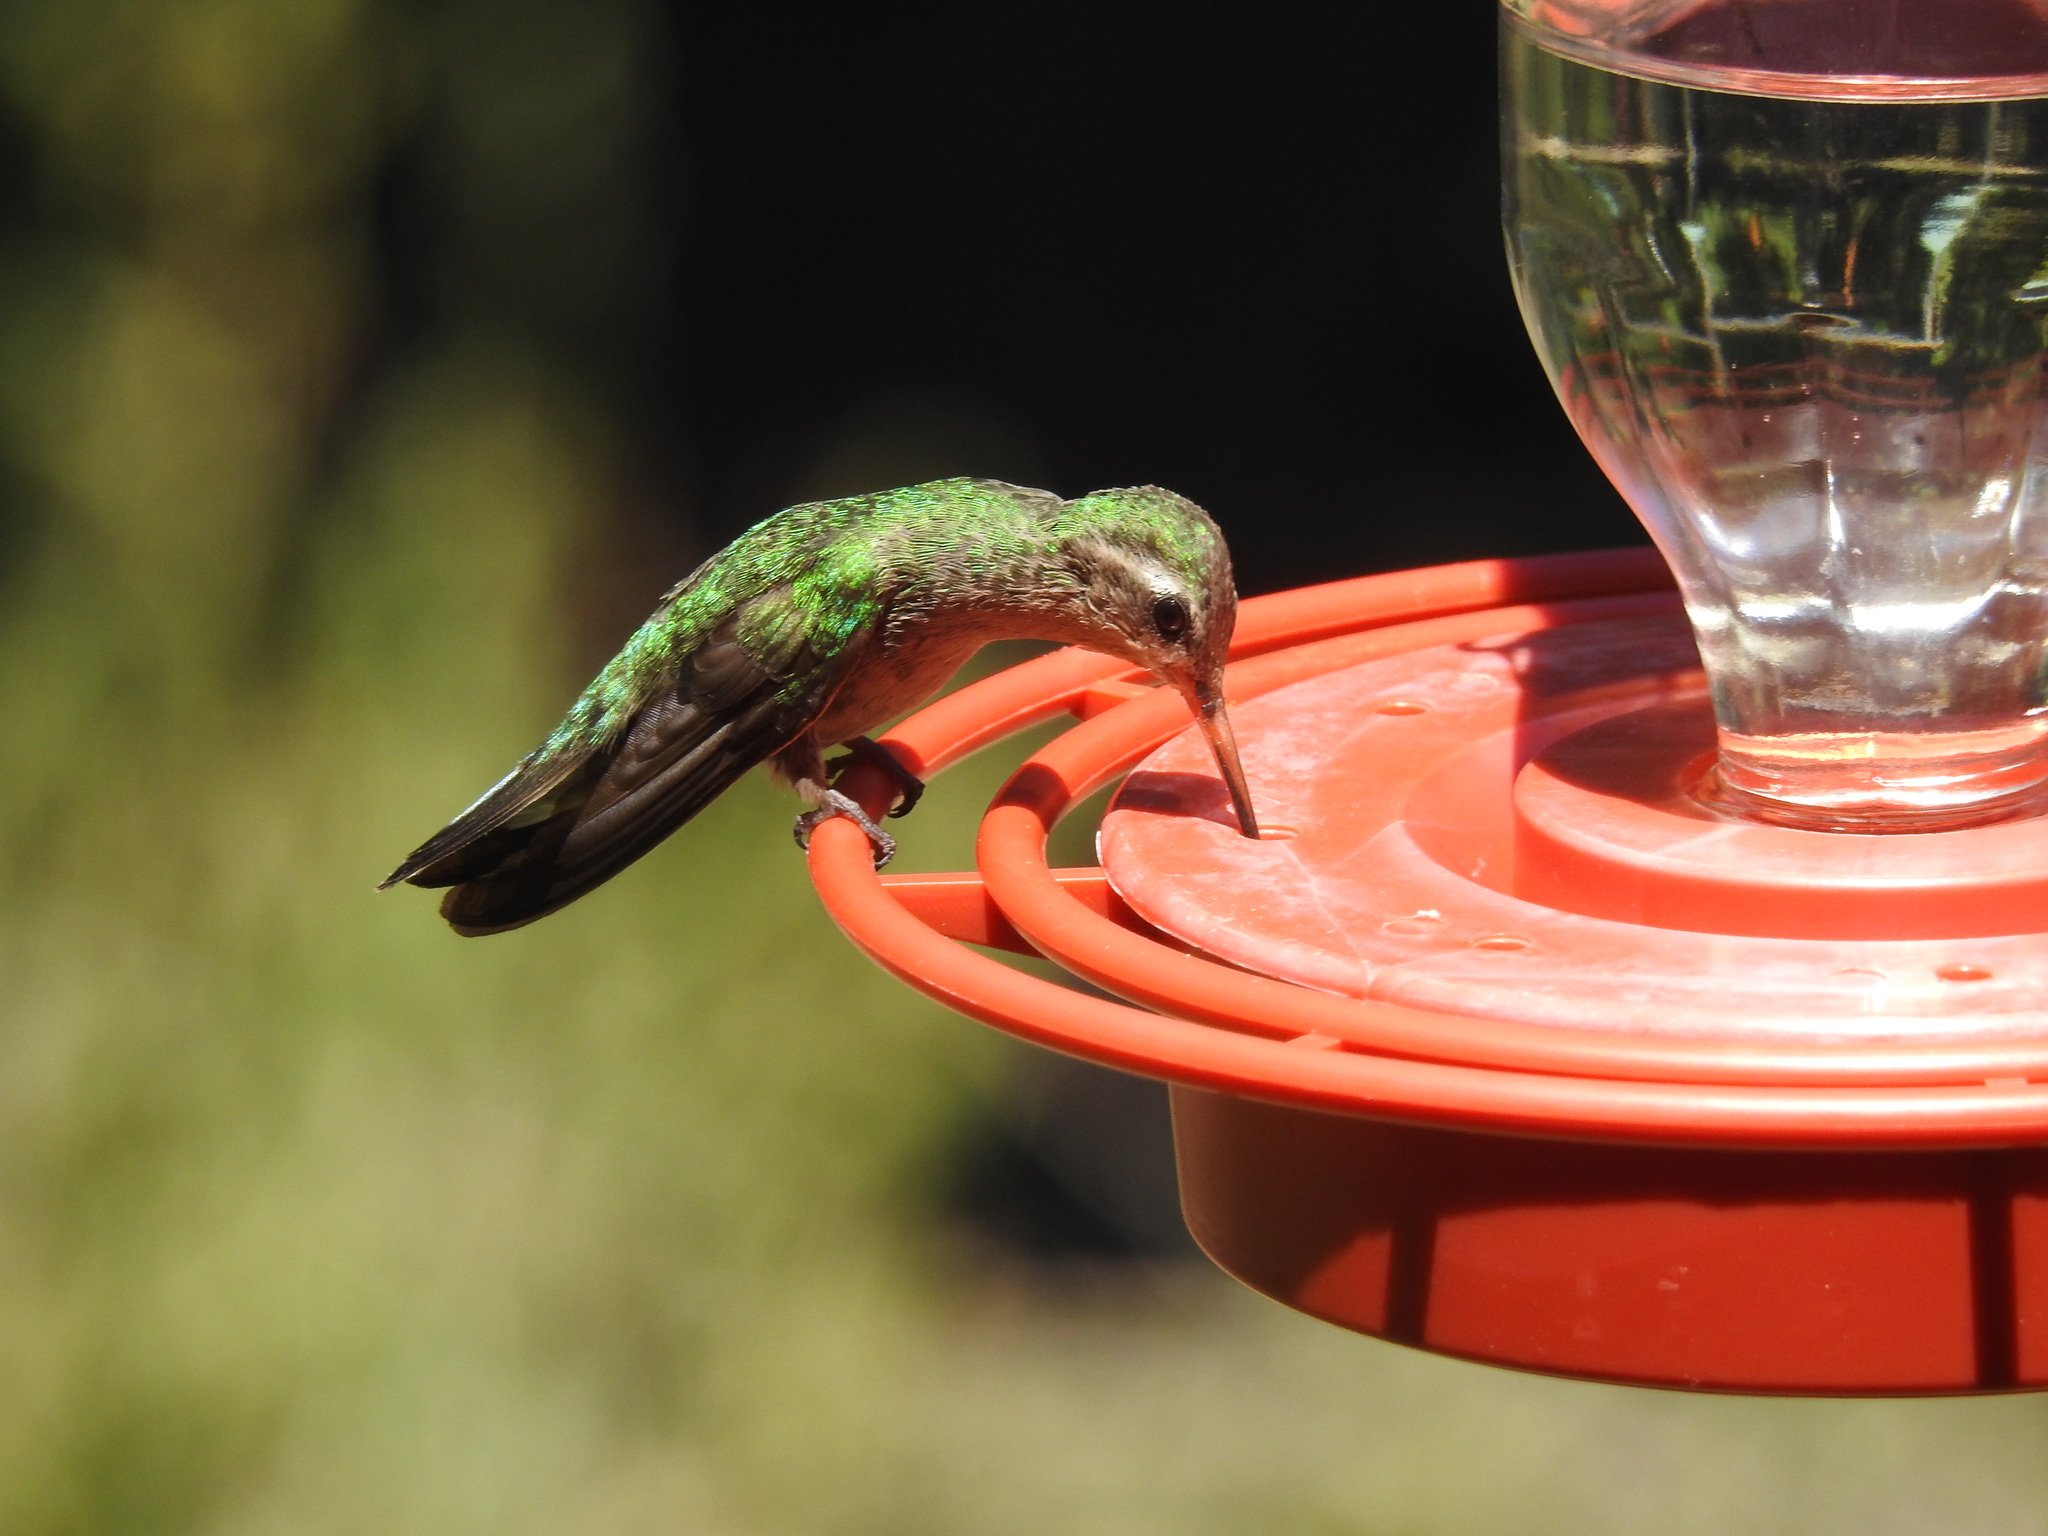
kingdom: Animalia
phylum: Chordata
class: Aves
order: Apodiformes
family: Trochilidae
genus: Cynanthus
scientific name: Cynanthus latirostris
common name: Broad-billed hummingbird
